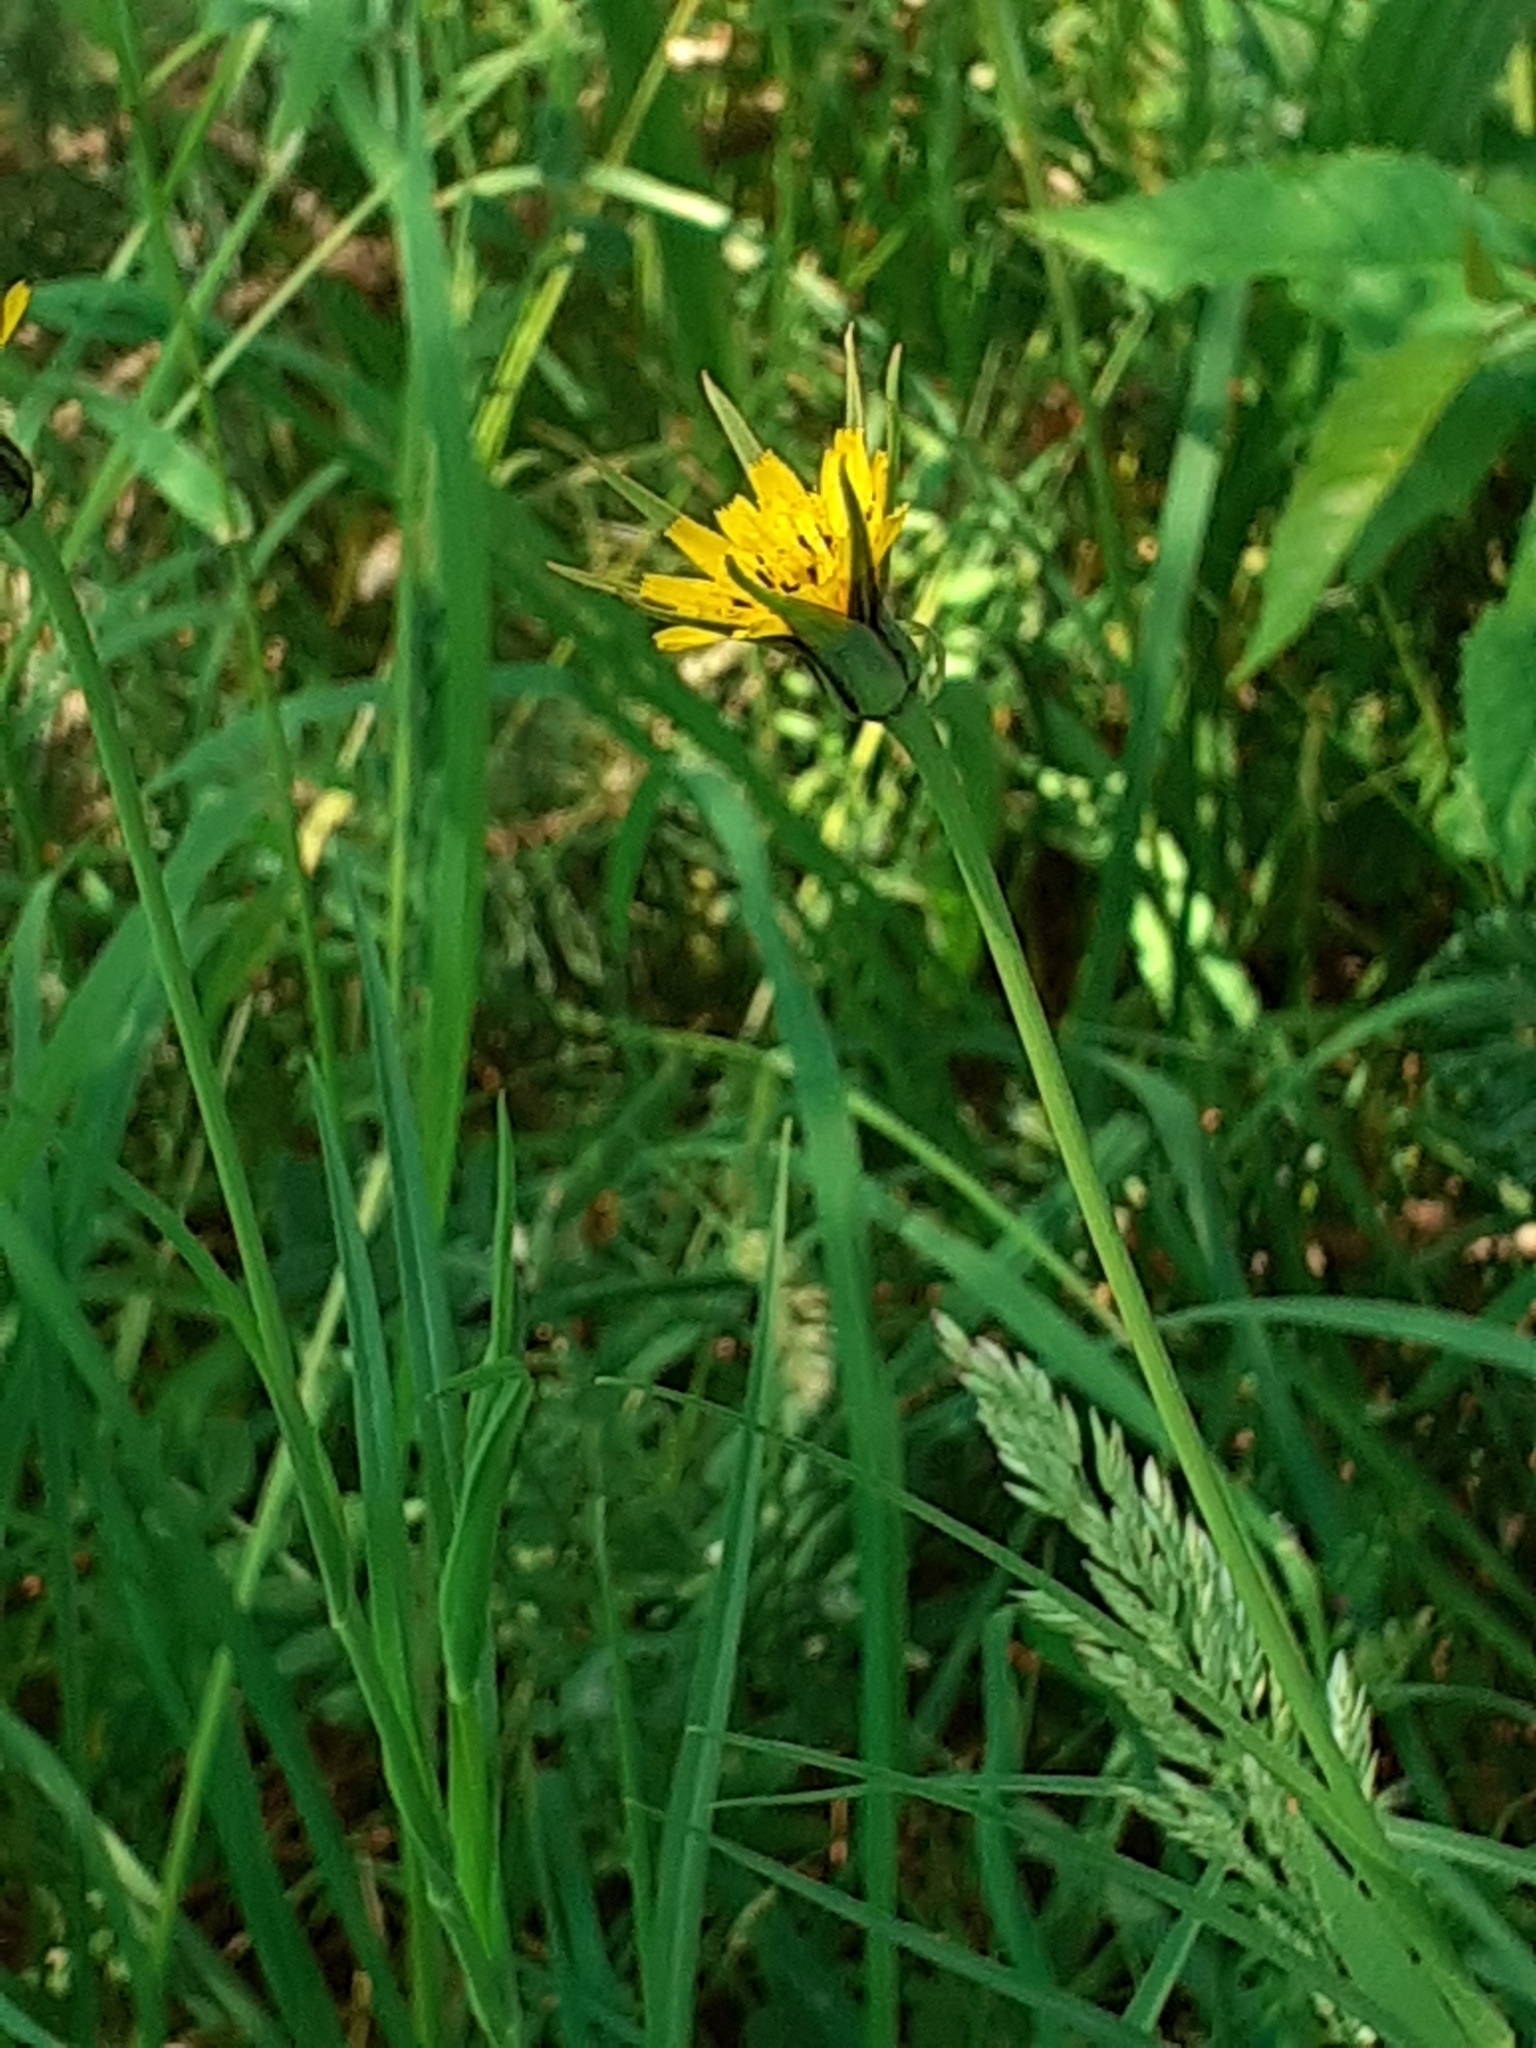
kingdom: Plantae
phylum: Tracheophyta
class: Magnoliopsida
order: Asterales
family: Asteraceae
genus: Tragopogon
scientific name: Tragopogon minor
